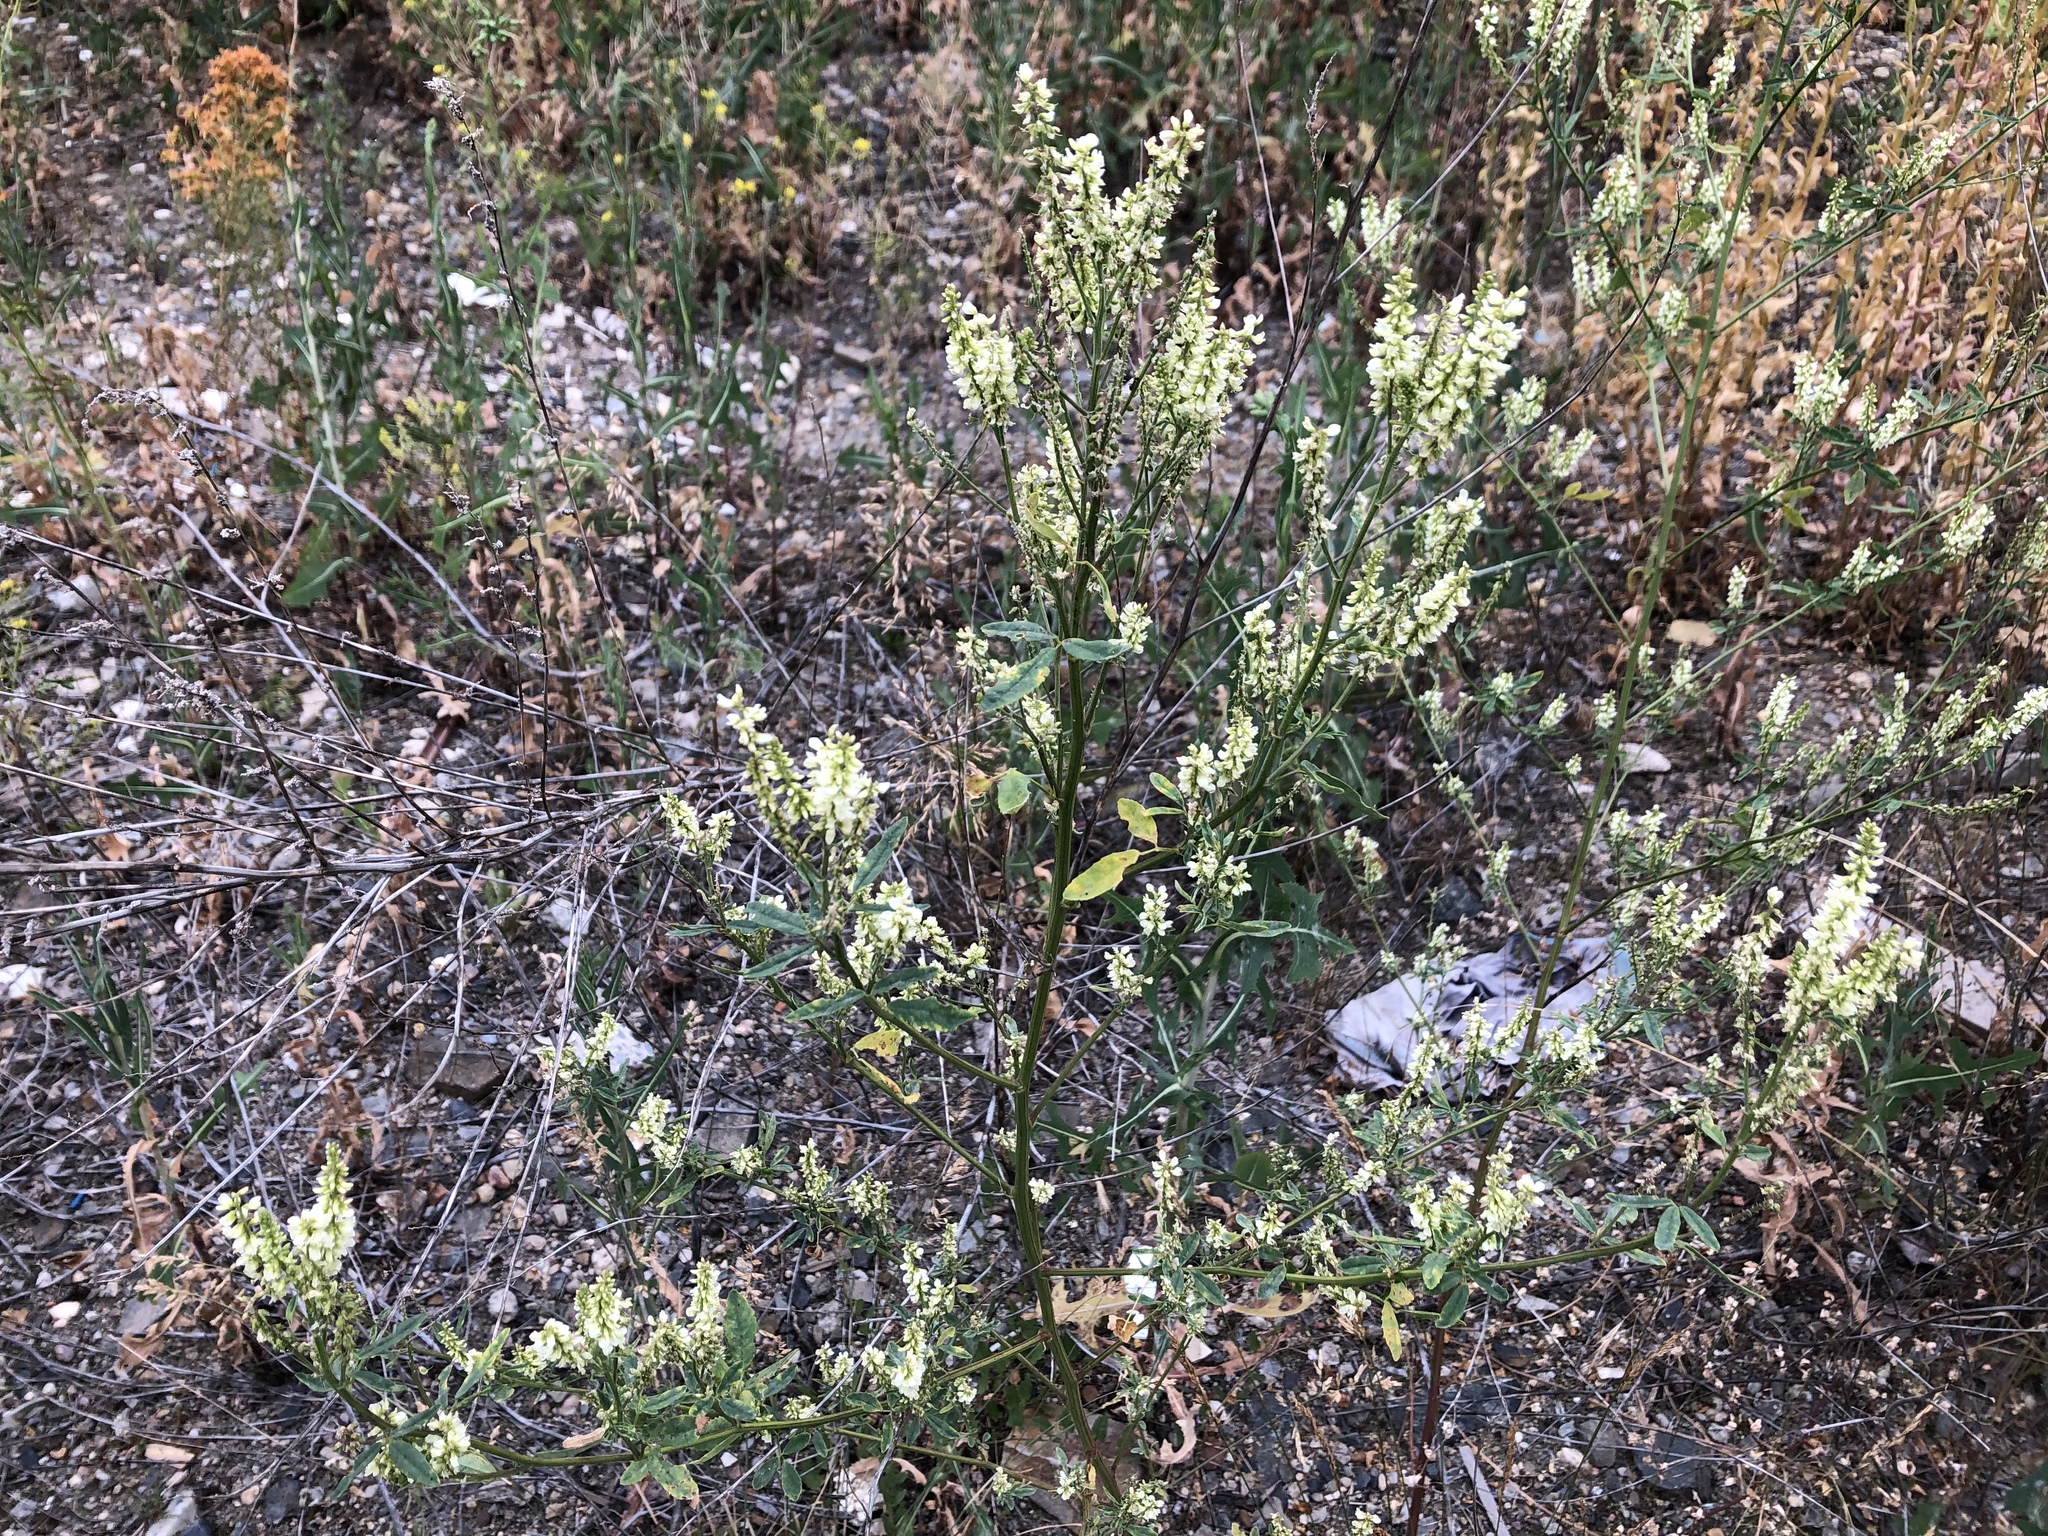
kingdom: Plantae
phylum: Tracheophyta
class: Magnoliopsida
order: Fabales
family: Fabaceae
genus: Melilotus
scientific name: Melilotus albus
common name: White melilot
